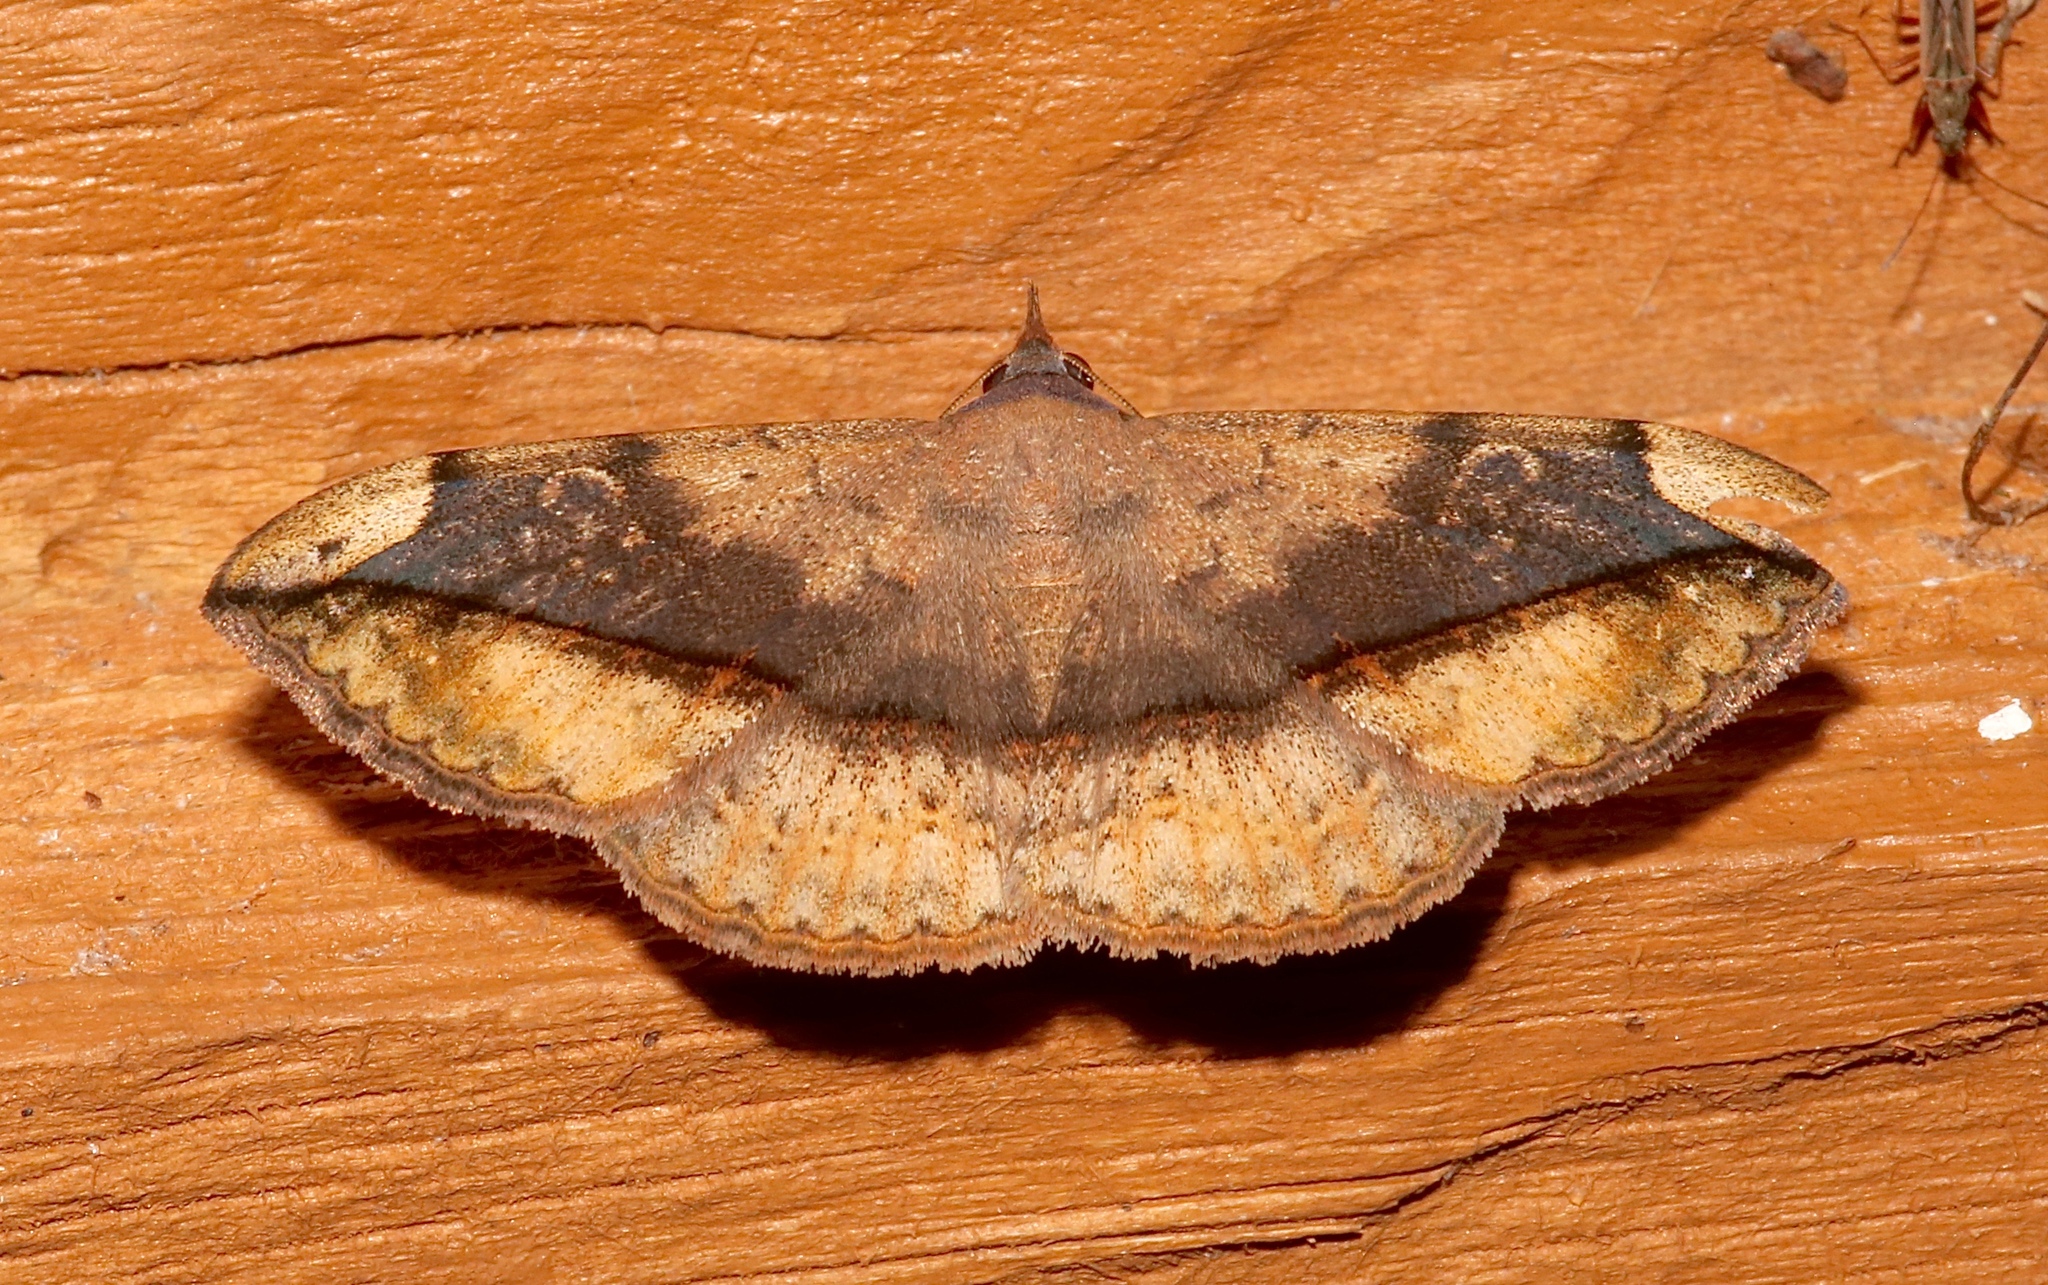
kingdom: Animalia
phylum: Arthropoda
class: Insecta
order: Lepidoptera
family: Erebidae
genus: Anticarsia
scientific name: Anticarsia gemmatalis
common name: Cutworm moth
